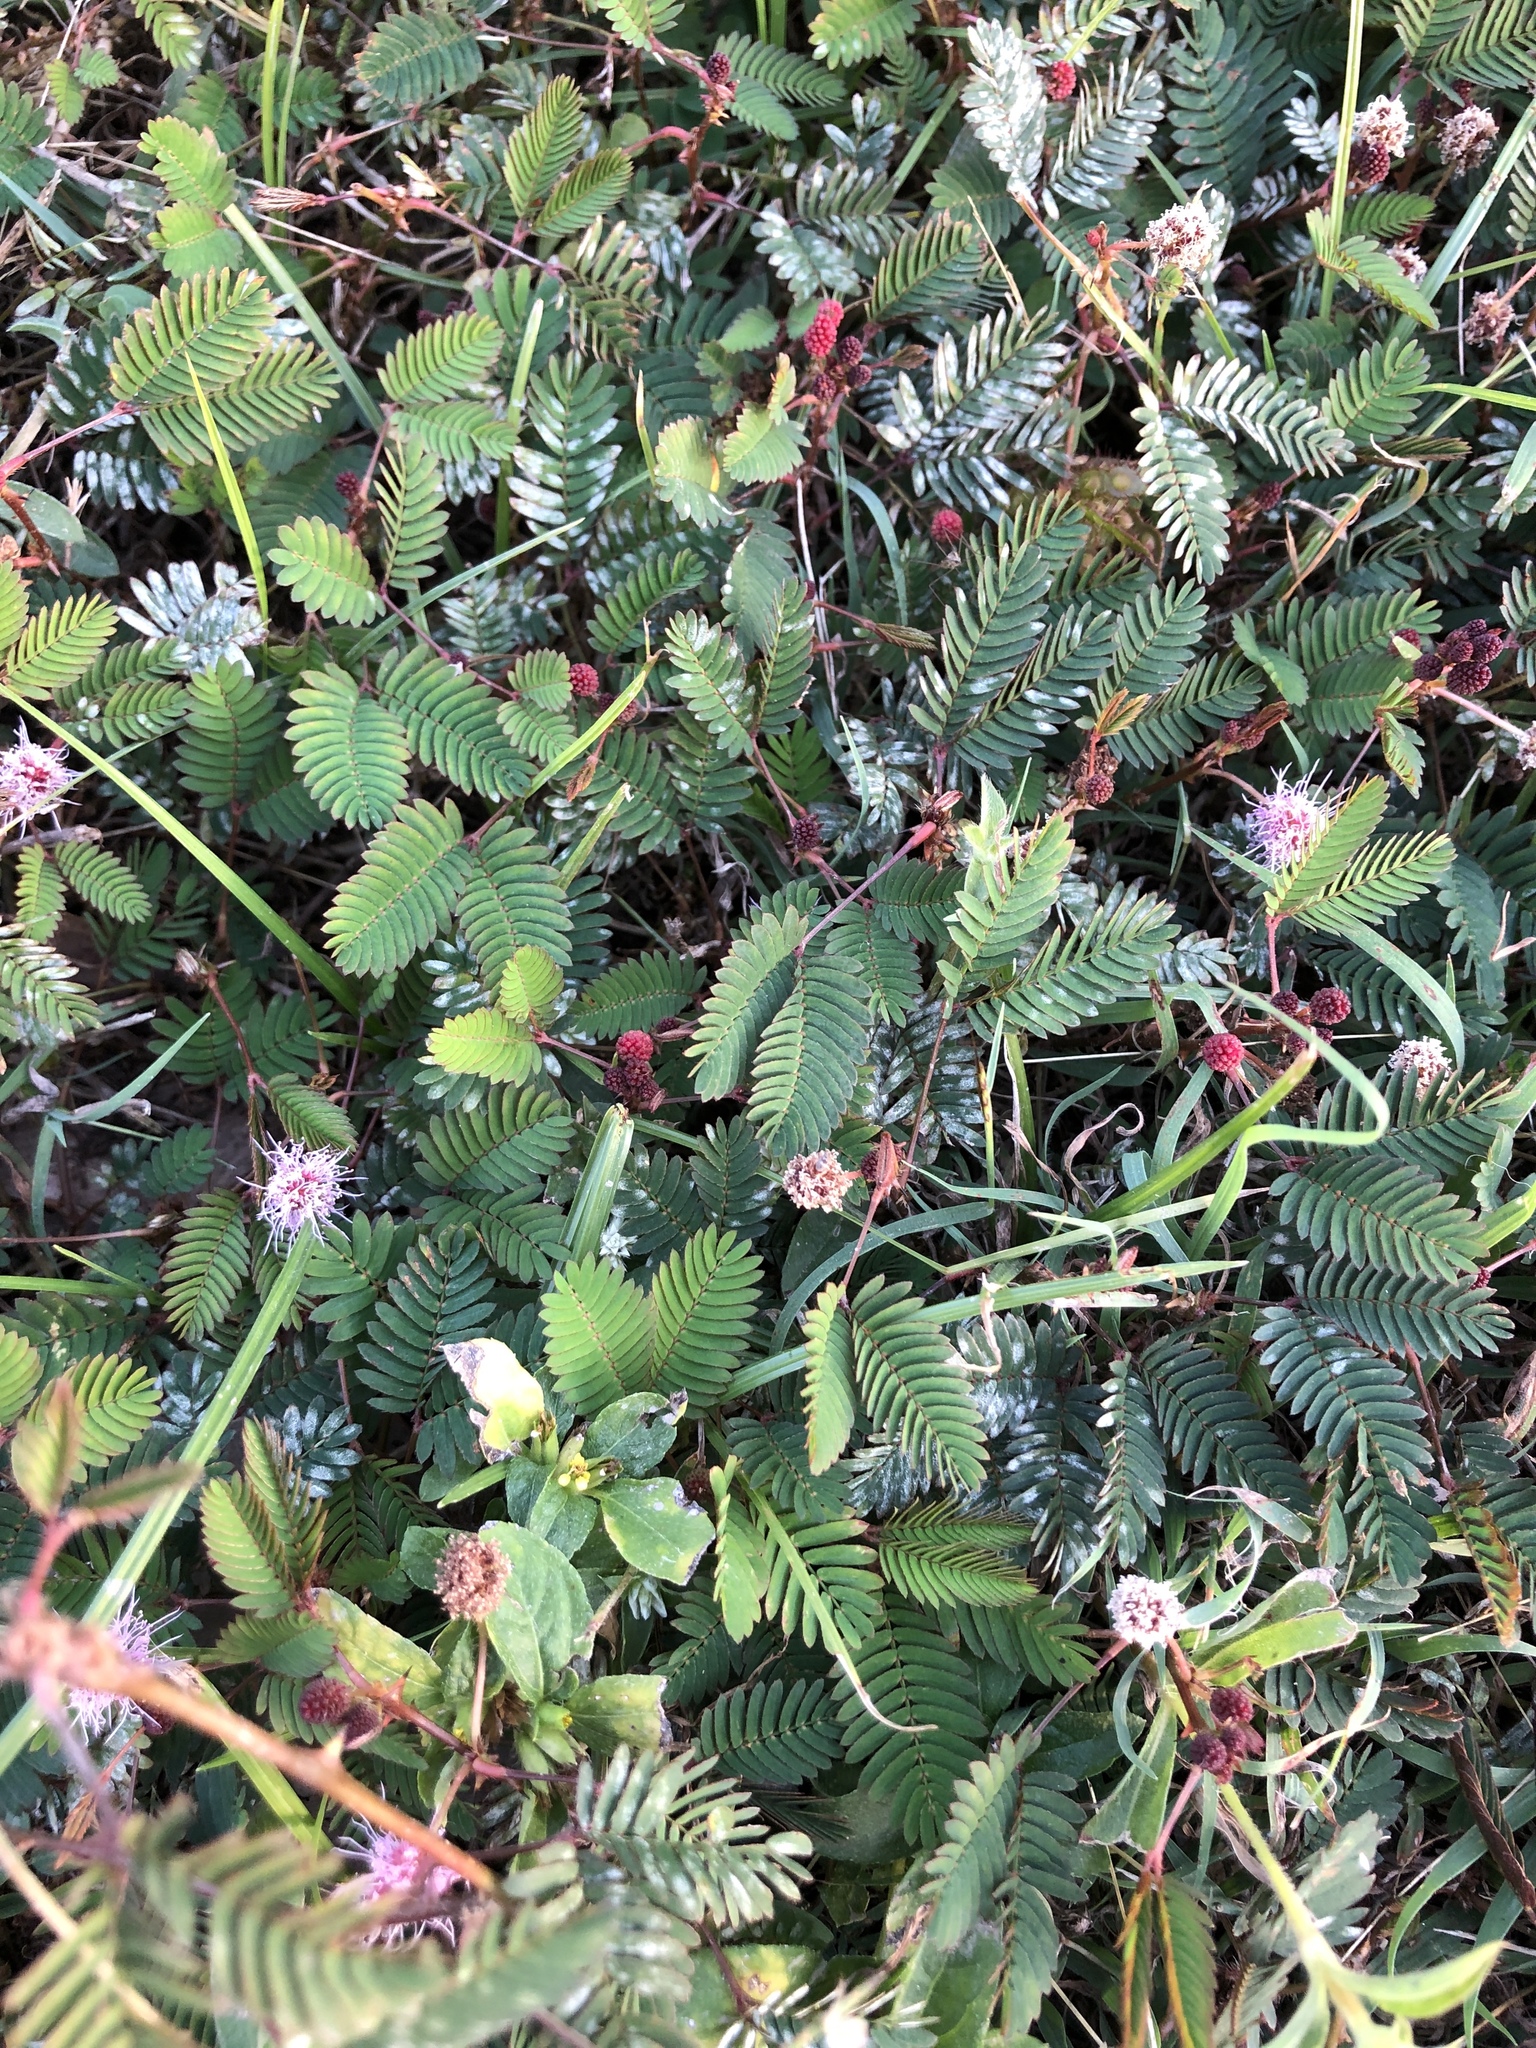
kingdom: Plantae
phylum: Tracheophyta
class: Magnoliopsida
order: Fabales
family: Fabaceae
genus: Mimosa
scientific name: Mimosa pudica
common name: Sensitive plant
